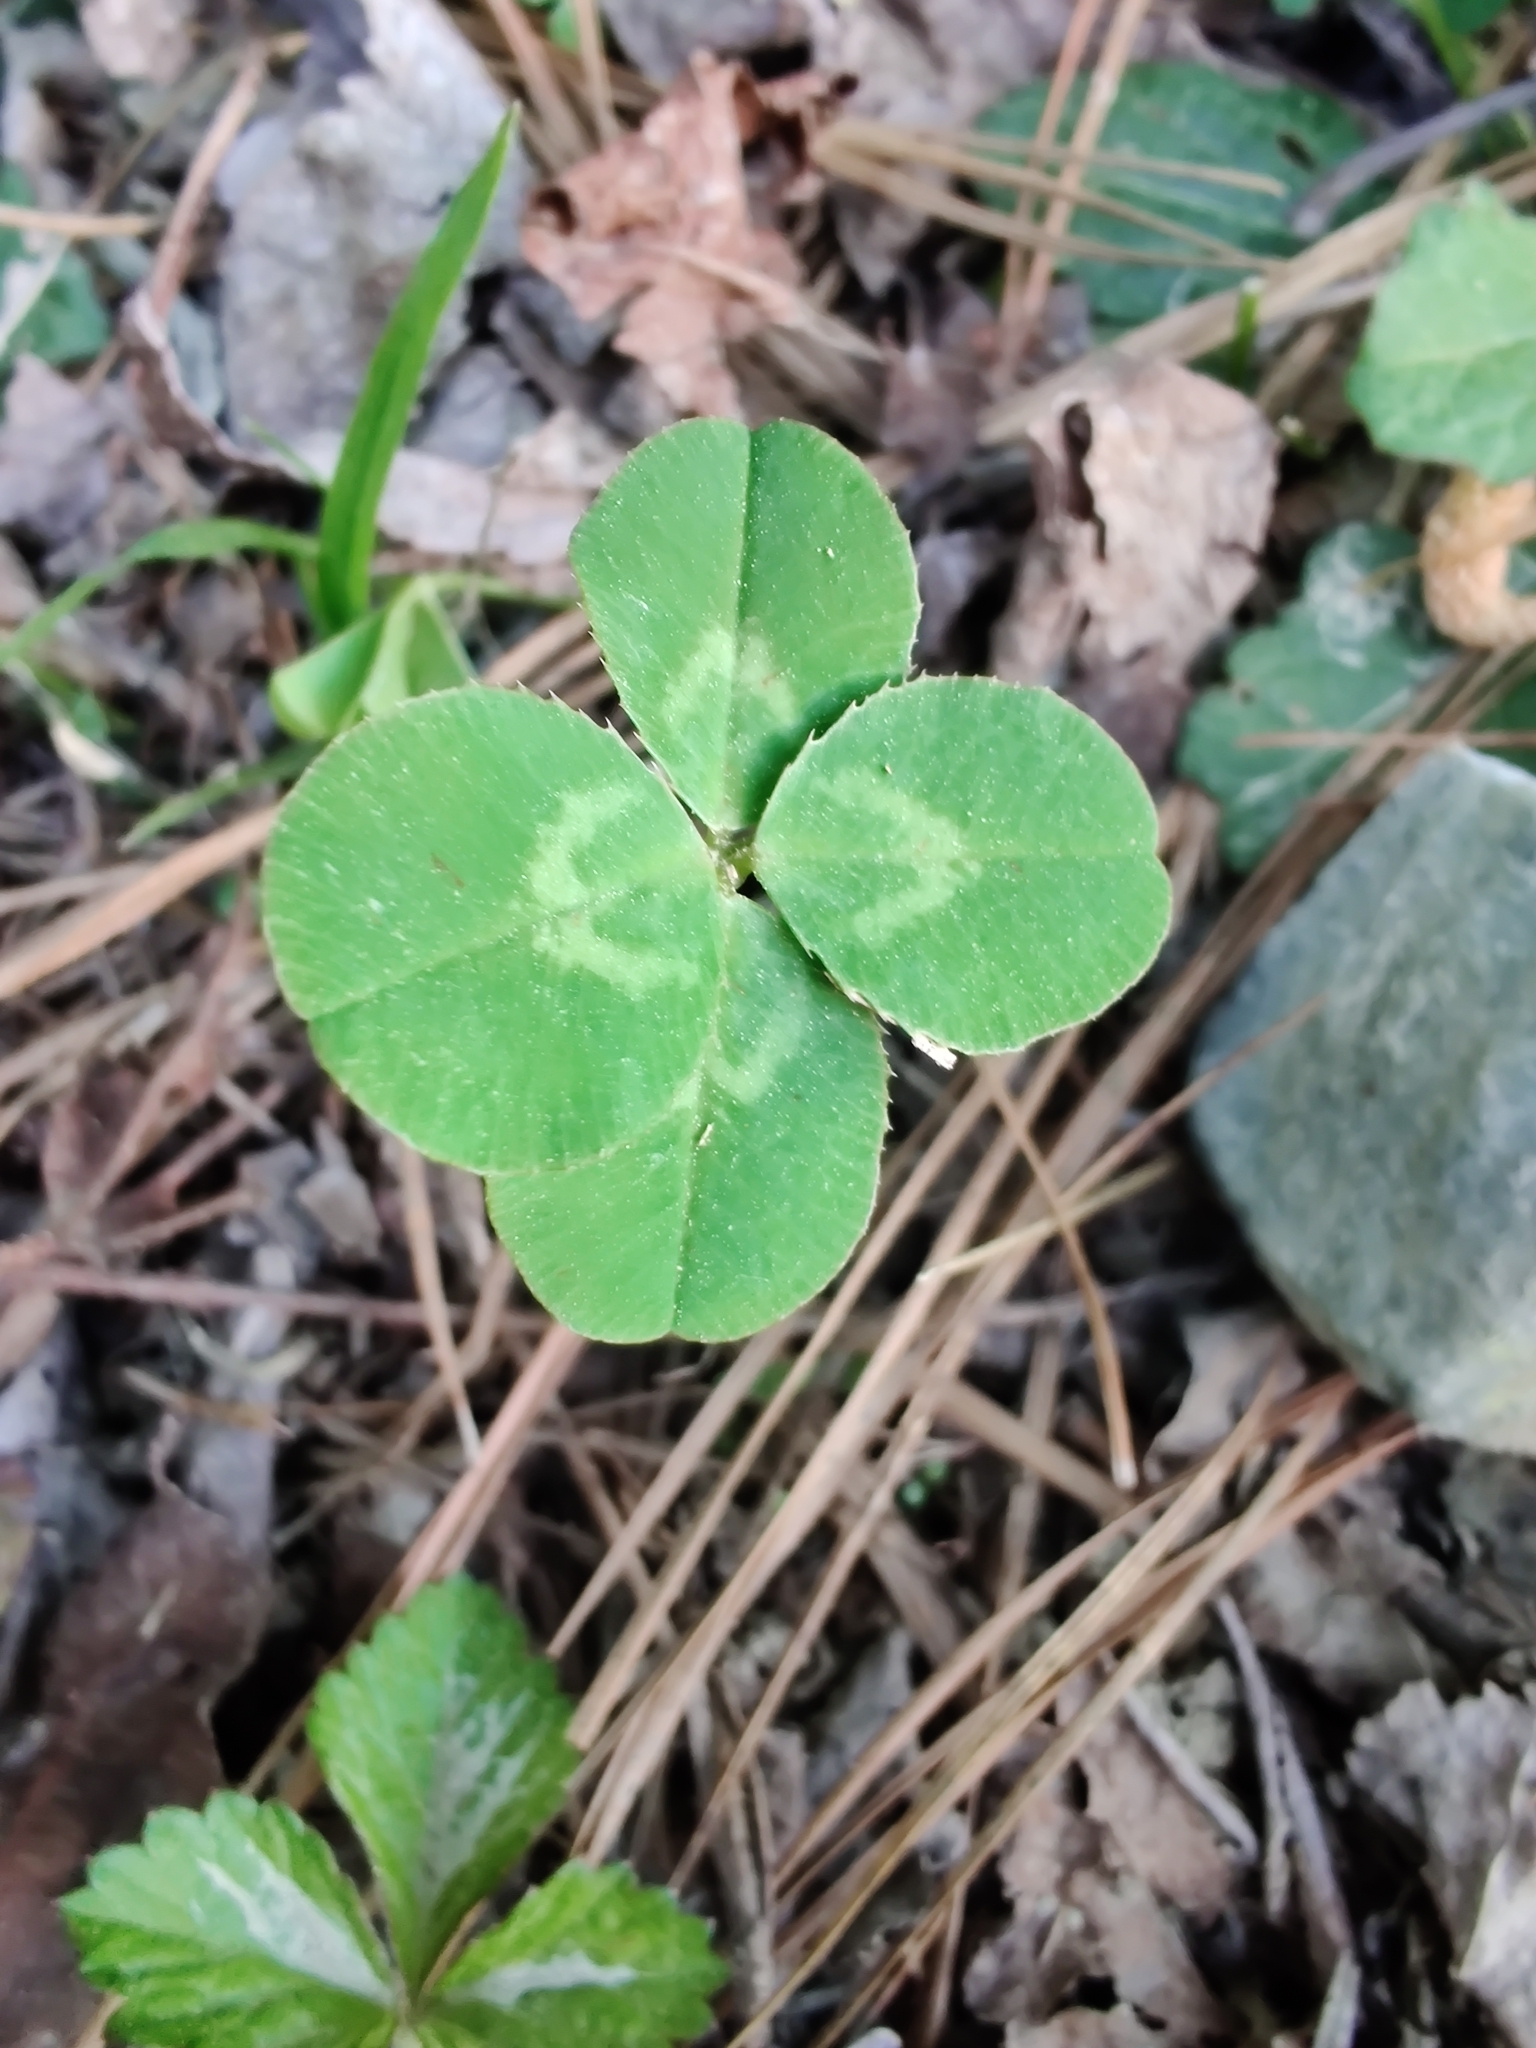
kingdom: Plantae
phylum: Tracheophyta
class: Magnoliopsida
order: Fabales
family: Fabaceae
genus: Trifolium
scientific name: Trifolium repens
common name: White clover
